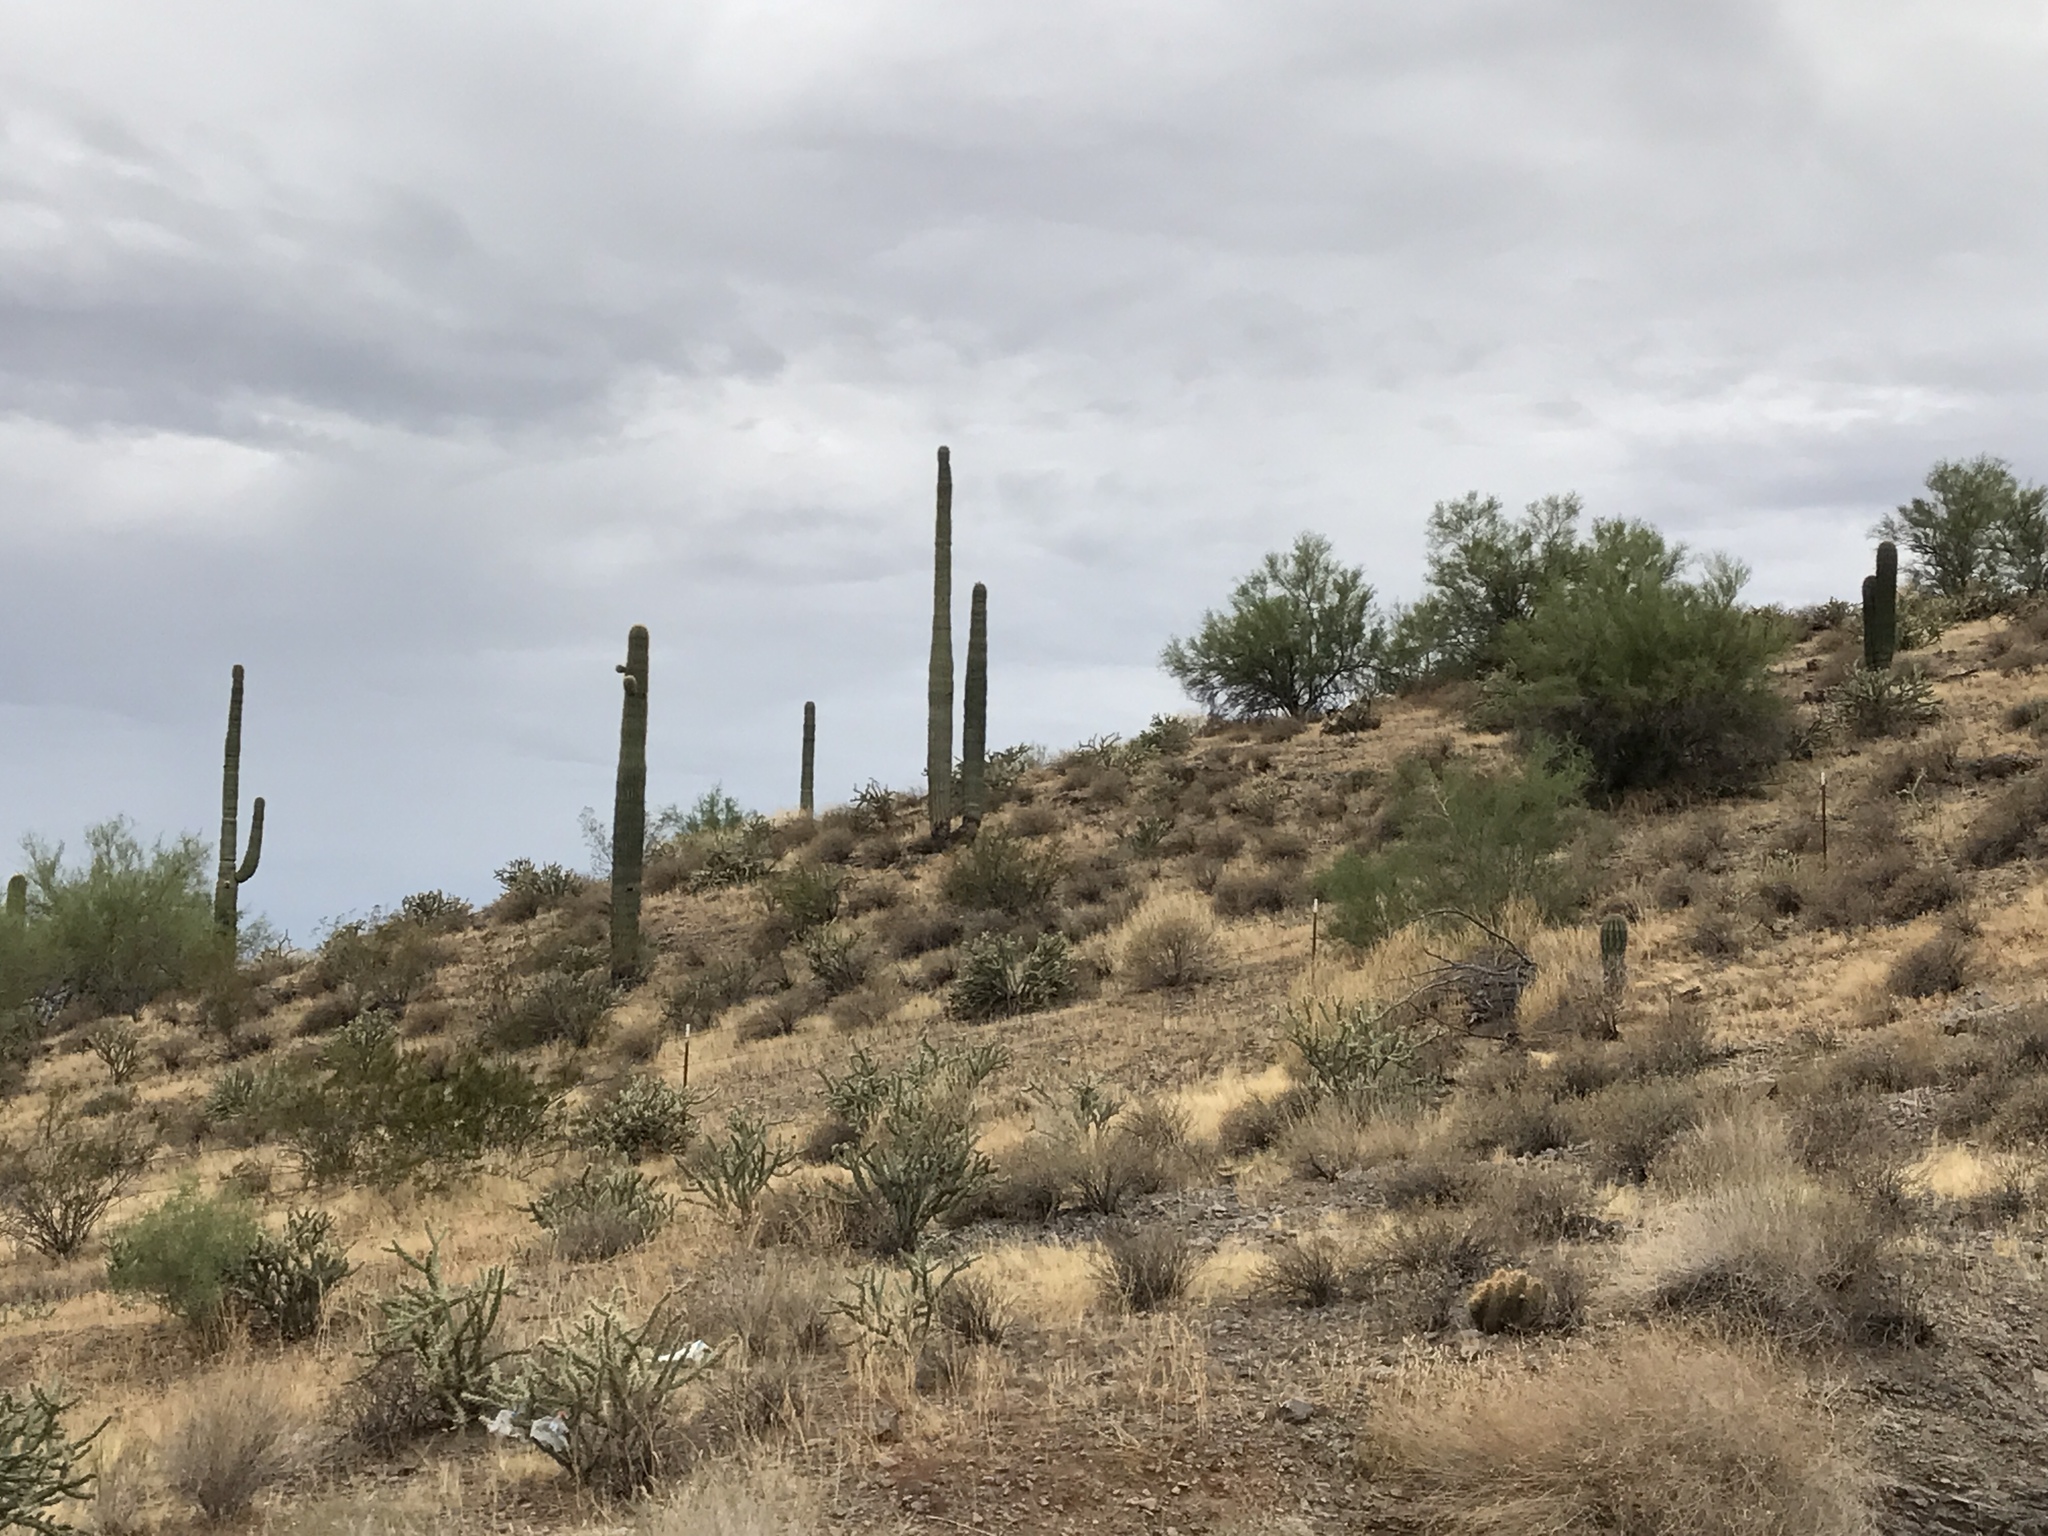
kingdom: Plantae
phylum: Tracheophyta
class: Magnoliopsida
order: Caryophyllales
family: Cactaceae
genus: Carnegiea
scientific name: Carnegiea gigantea
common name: Saguaro
